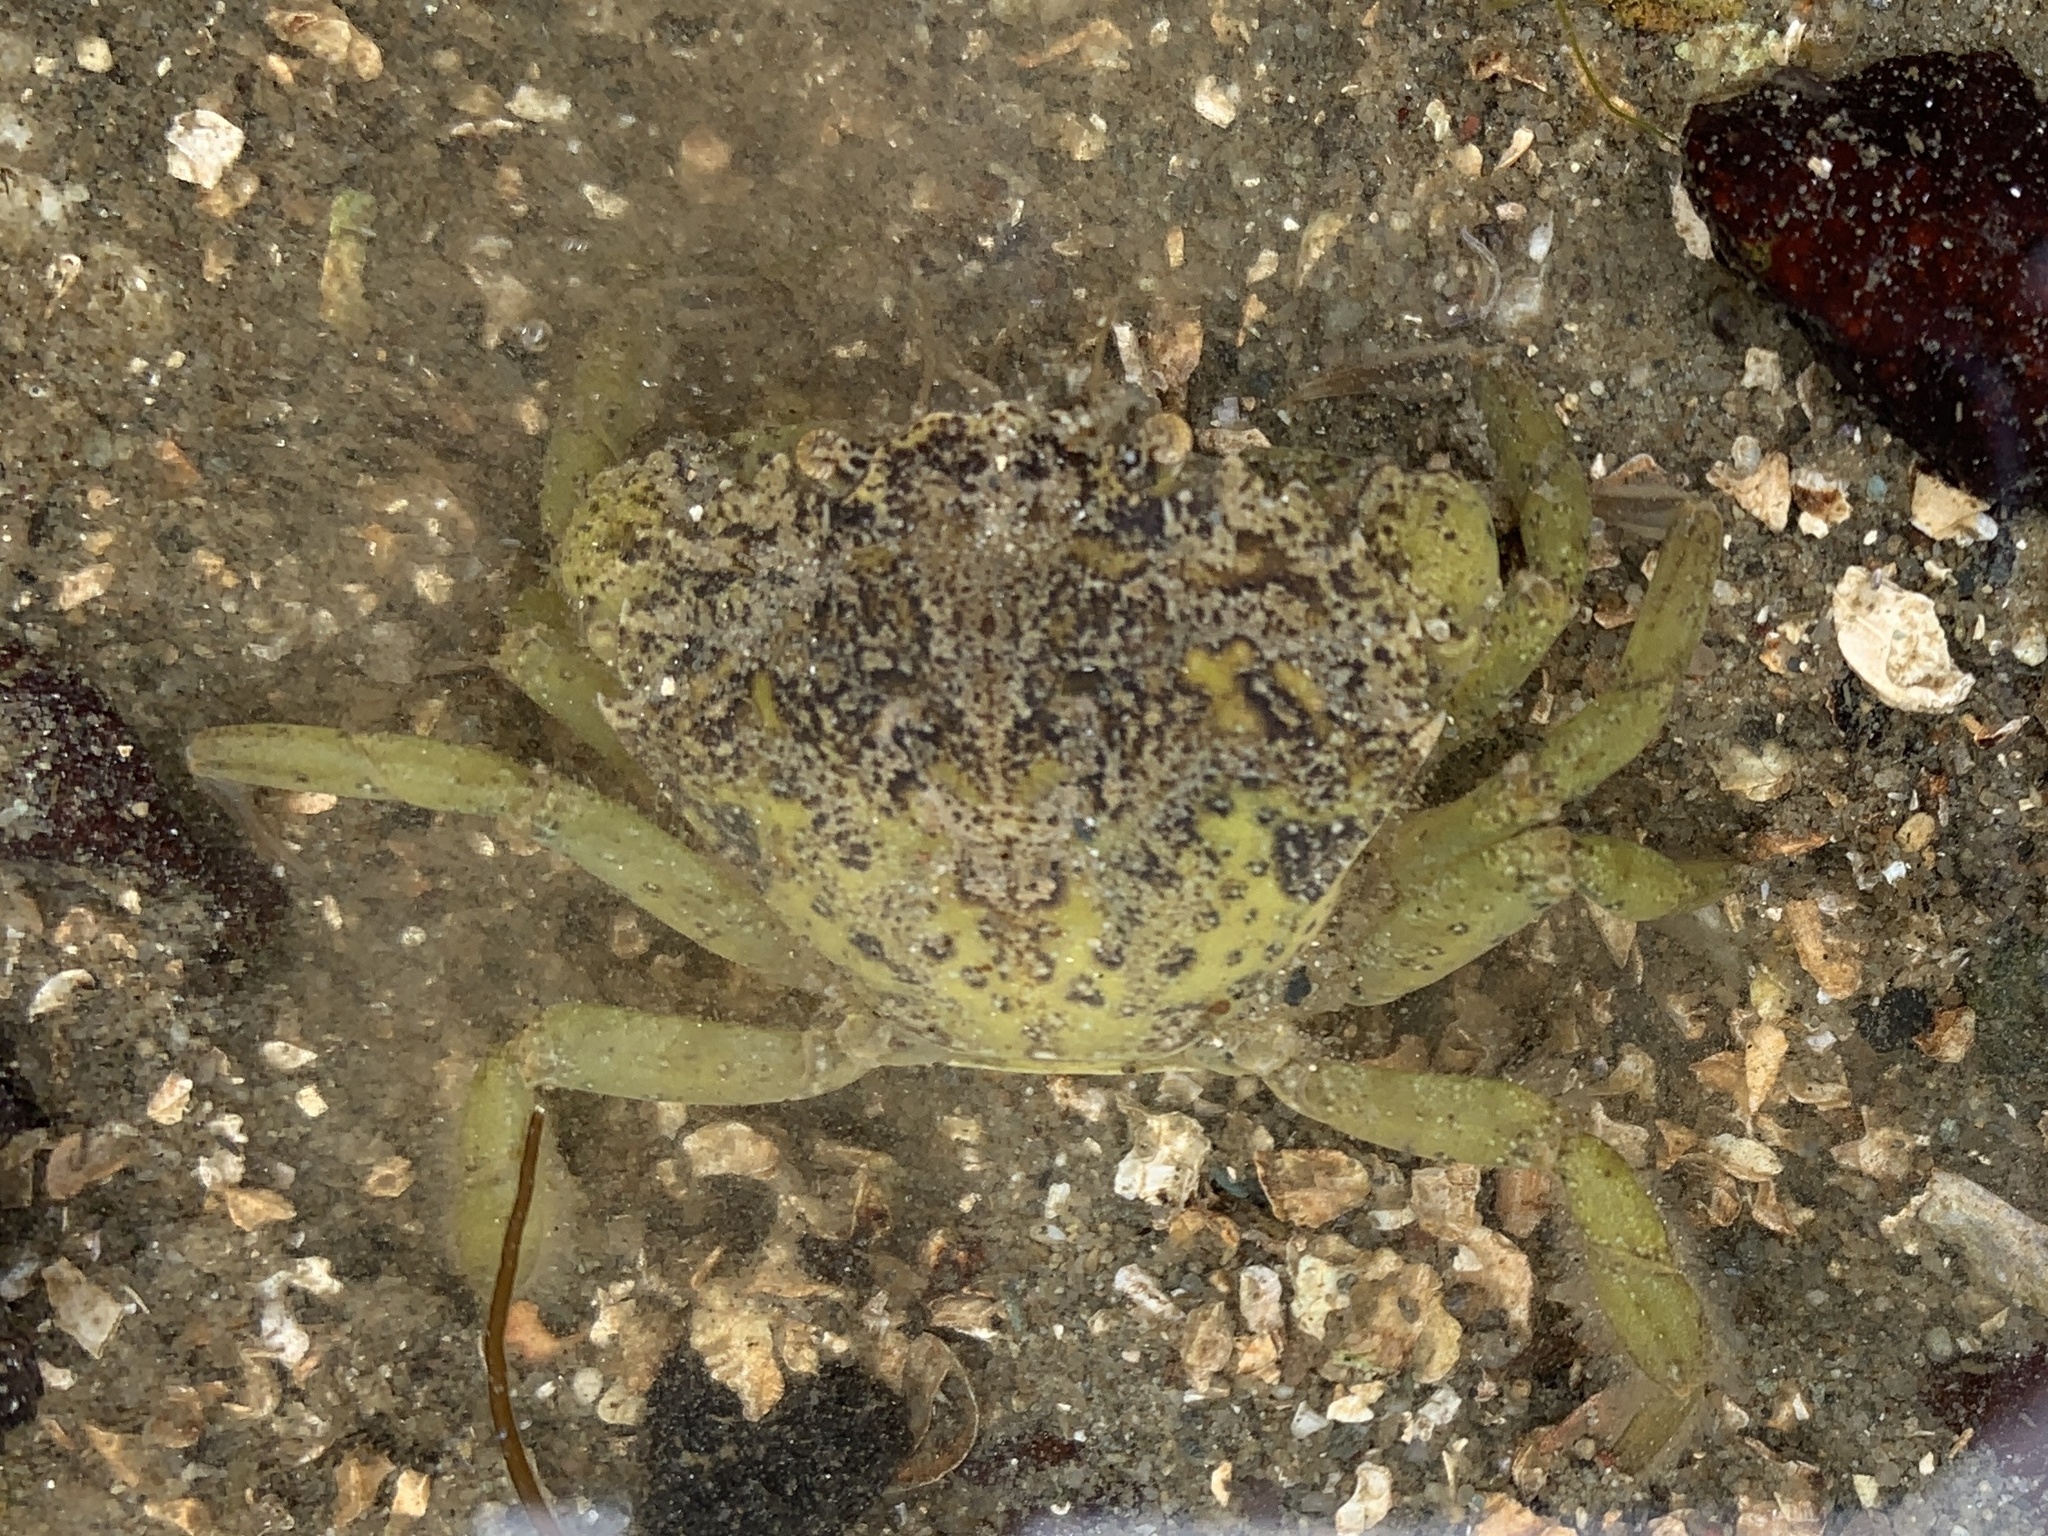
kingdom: Animalia
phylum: Arthropoda
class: Malacostraca
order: Decapoda
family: Carcinidae
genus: Carcinus
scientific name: Carcinus maenas
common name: European green crab
